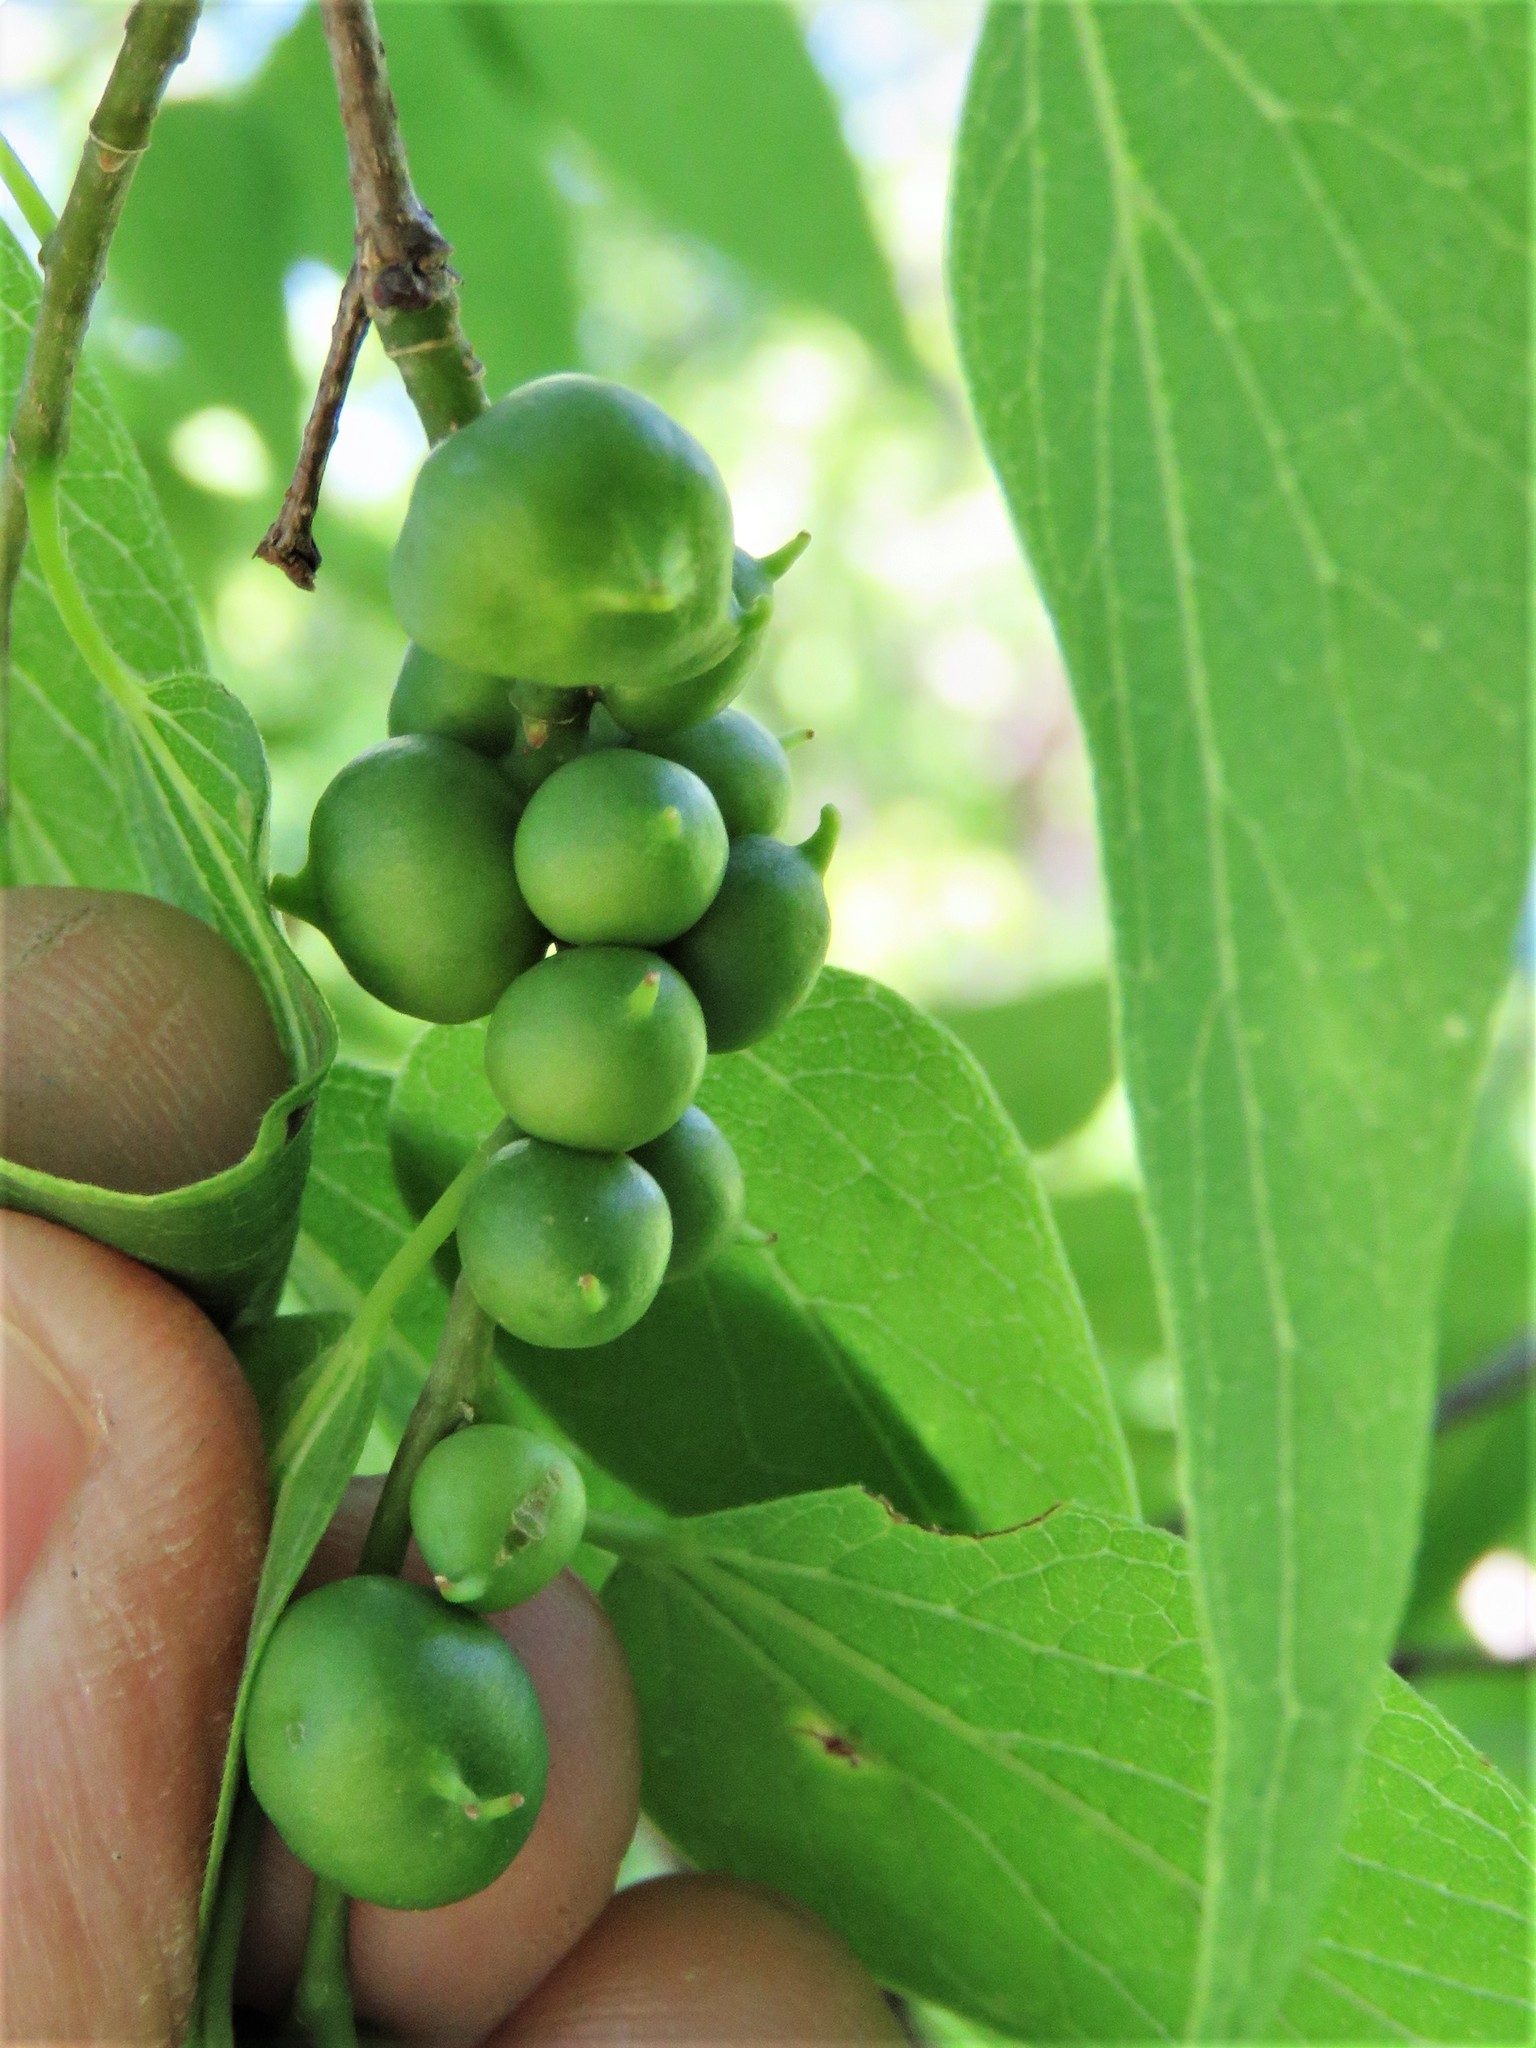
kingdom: Animalia
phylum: Arthropoda
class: Insecta
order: Diptera
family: Cecidomyiidae
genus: Celticecis
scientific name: Celticecis connata
